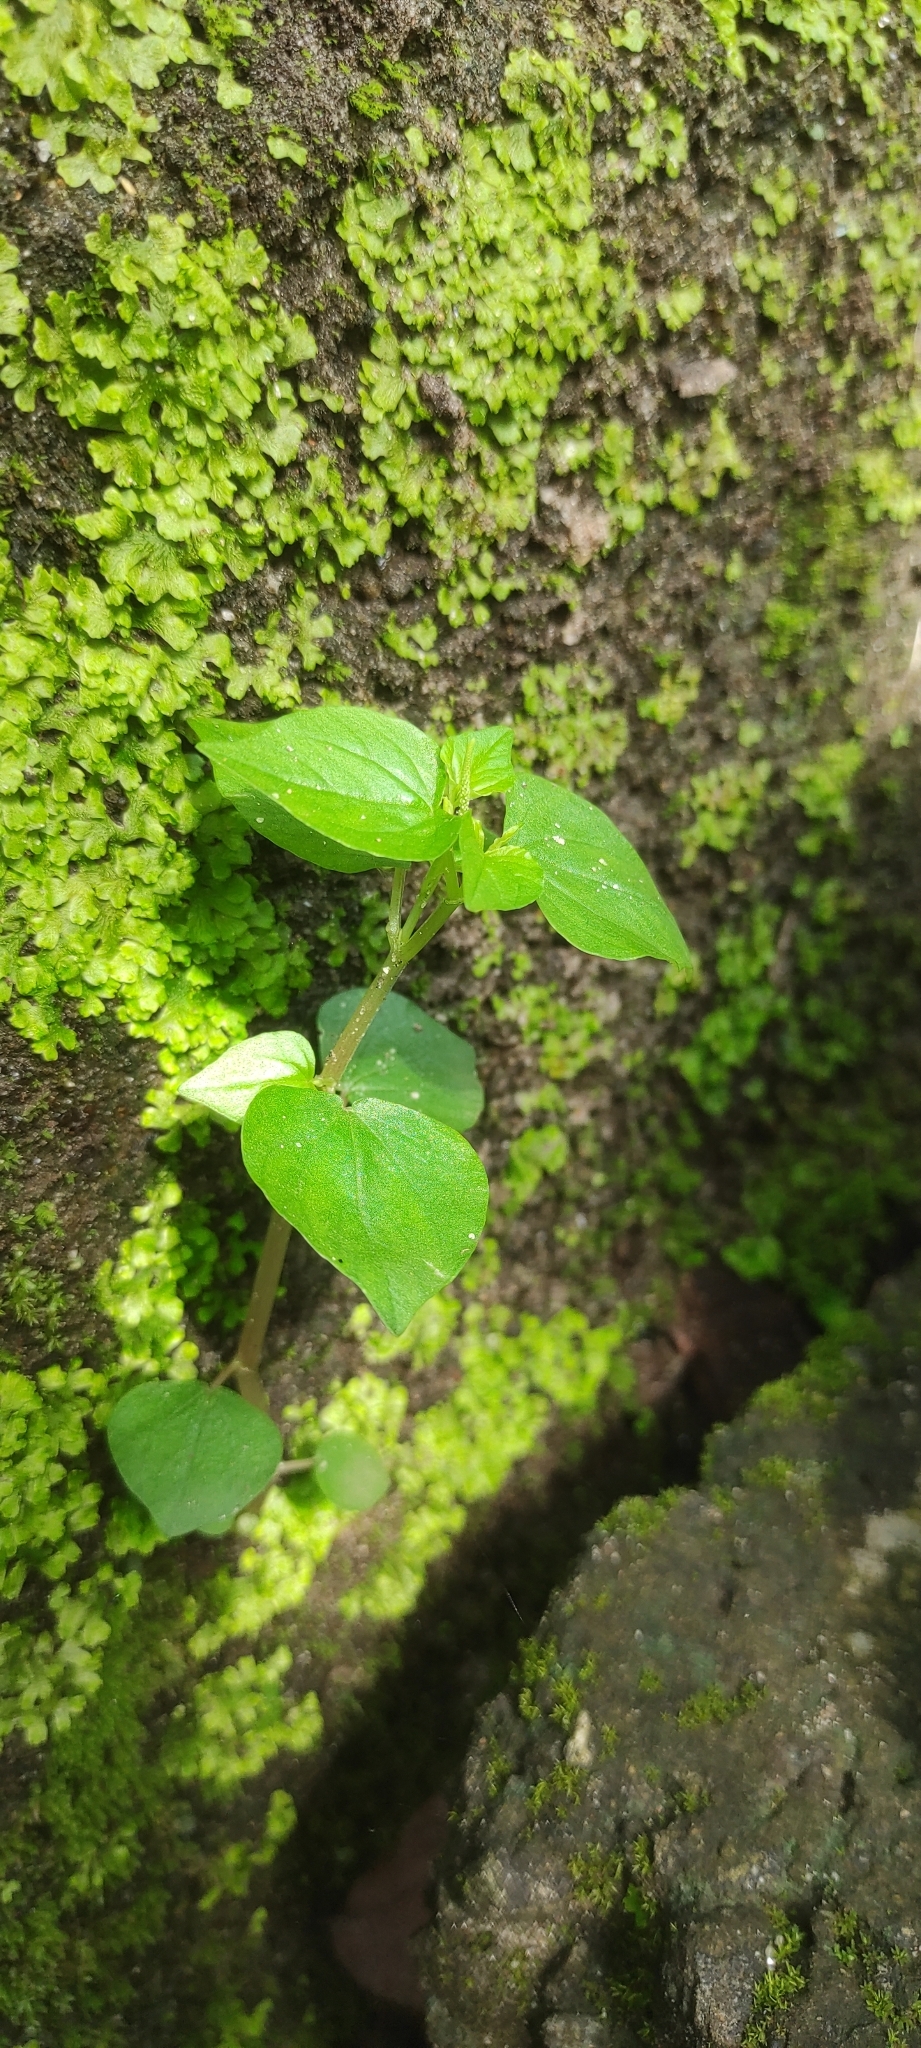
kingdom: Plantae
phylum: Tracheophyta
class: Magnoliopsida
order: Piperales
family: Piperaceae
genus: Peperomia
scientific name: Peperomia pellucida
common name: Man to man
